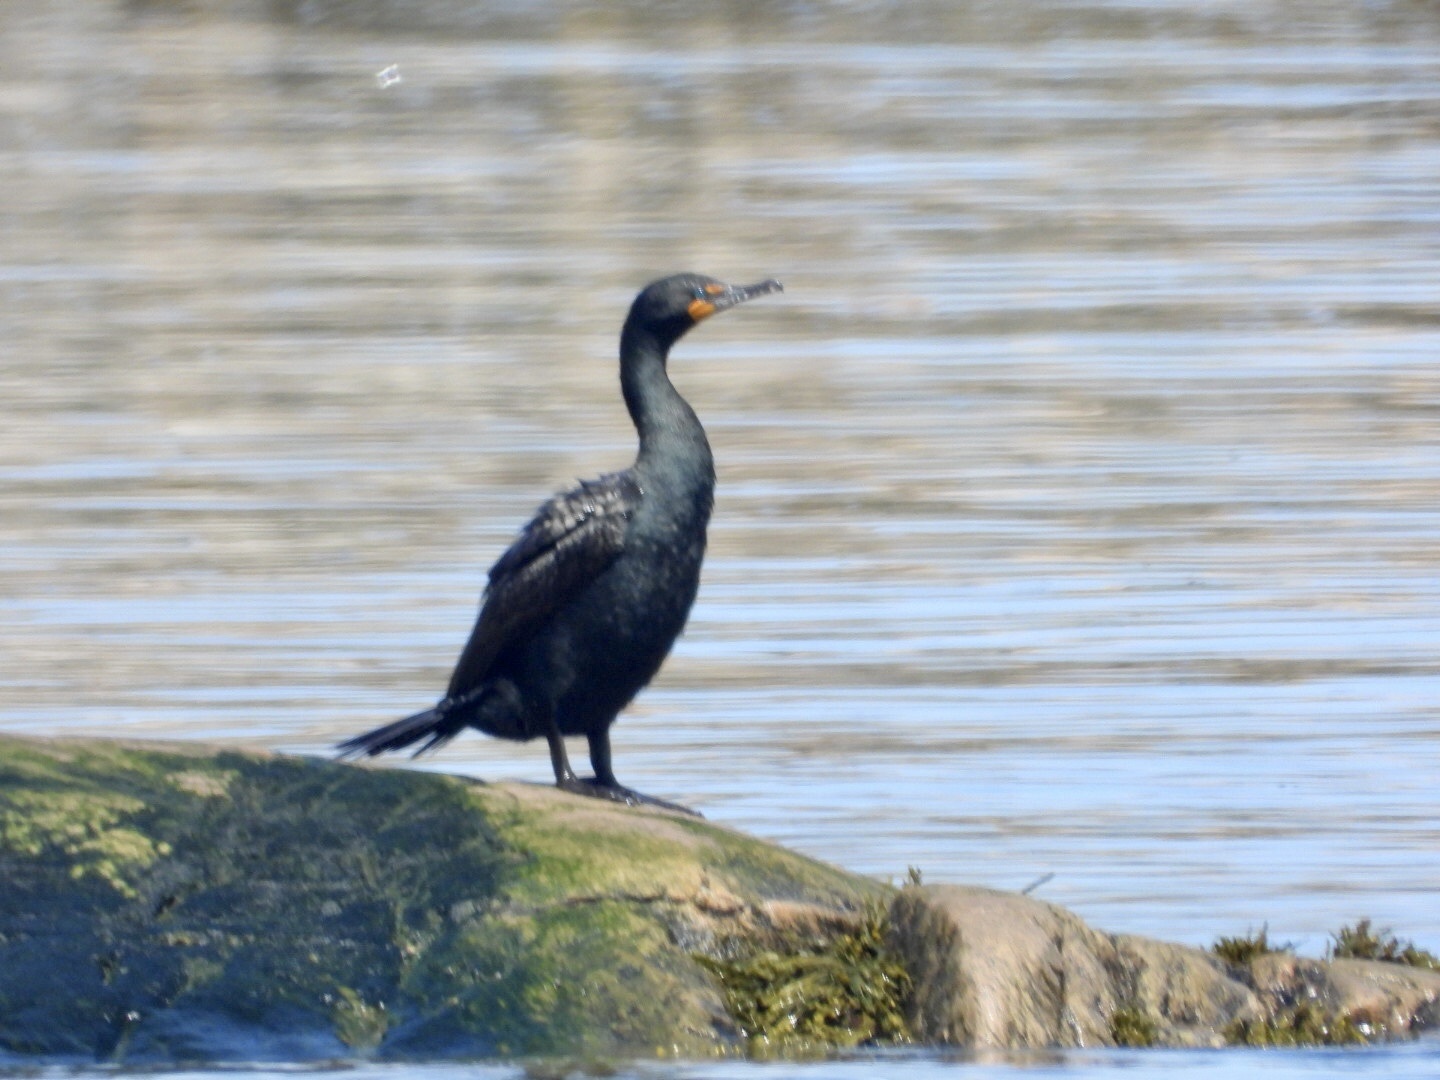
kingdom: Animalia
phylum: Chordata
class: Aves
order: Suliformes
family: Phalacrocoracidae
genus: Phalacrocorax
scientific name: Phalacrocorax auritus
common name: Double-crested cormorant
